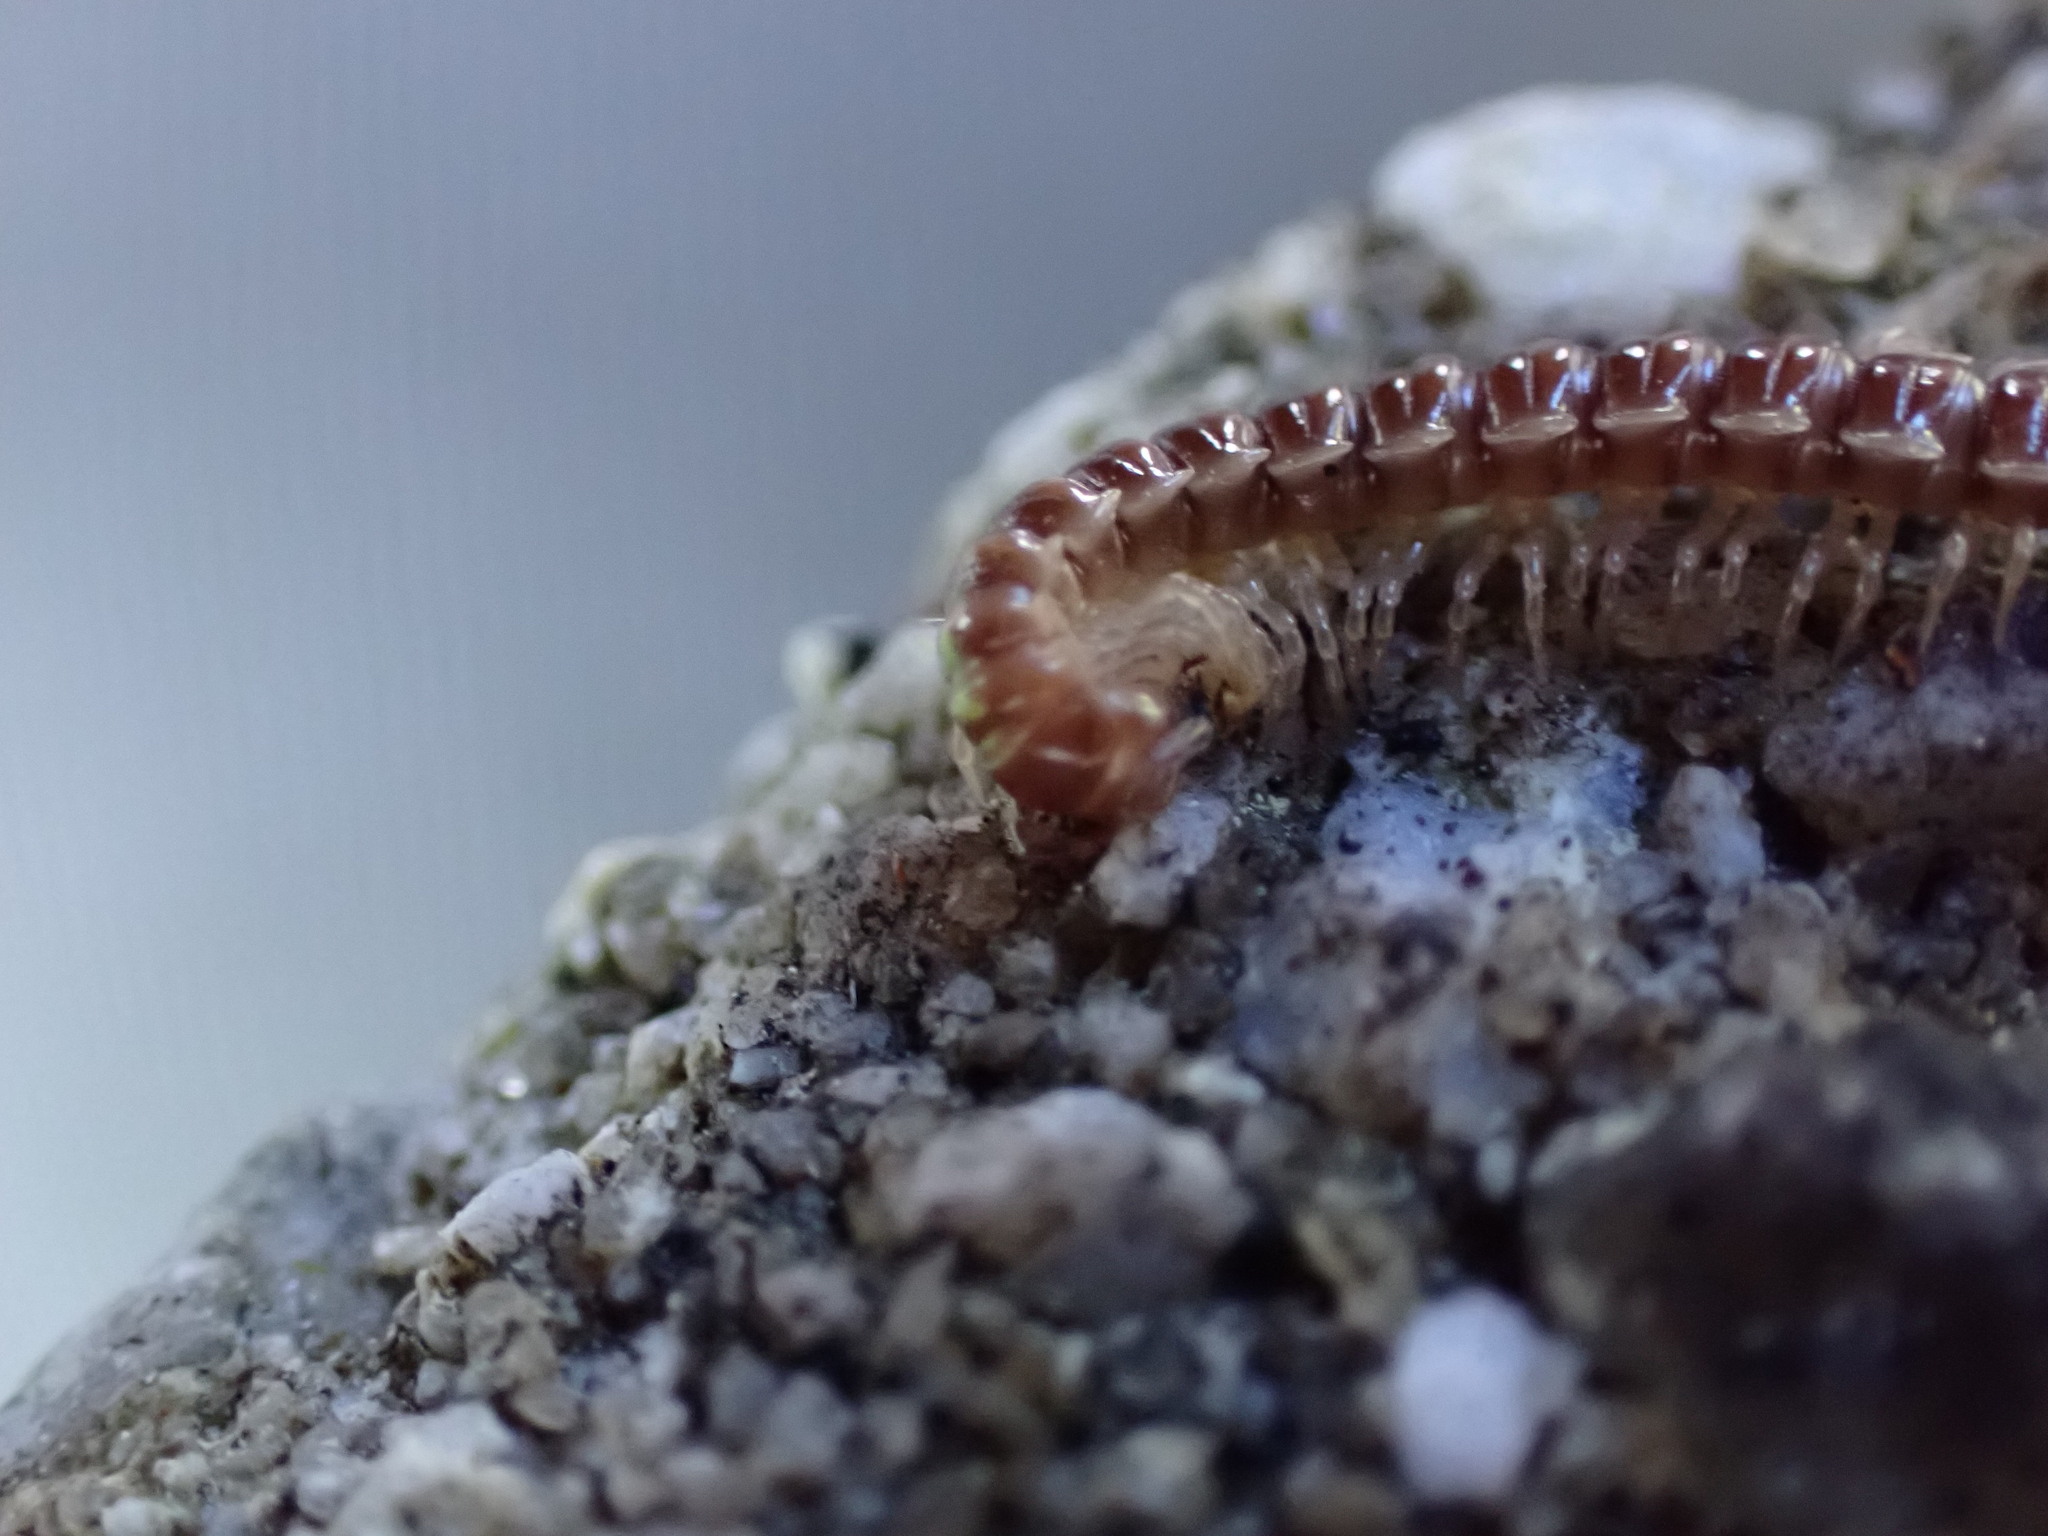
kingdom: Animalia
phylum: Arthropoda
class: Diplopoda
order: Polydesmida
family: Paradoxosomatidae
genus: Oxidus
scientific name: Oxidus gracilis
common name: Greenhouse millipede
